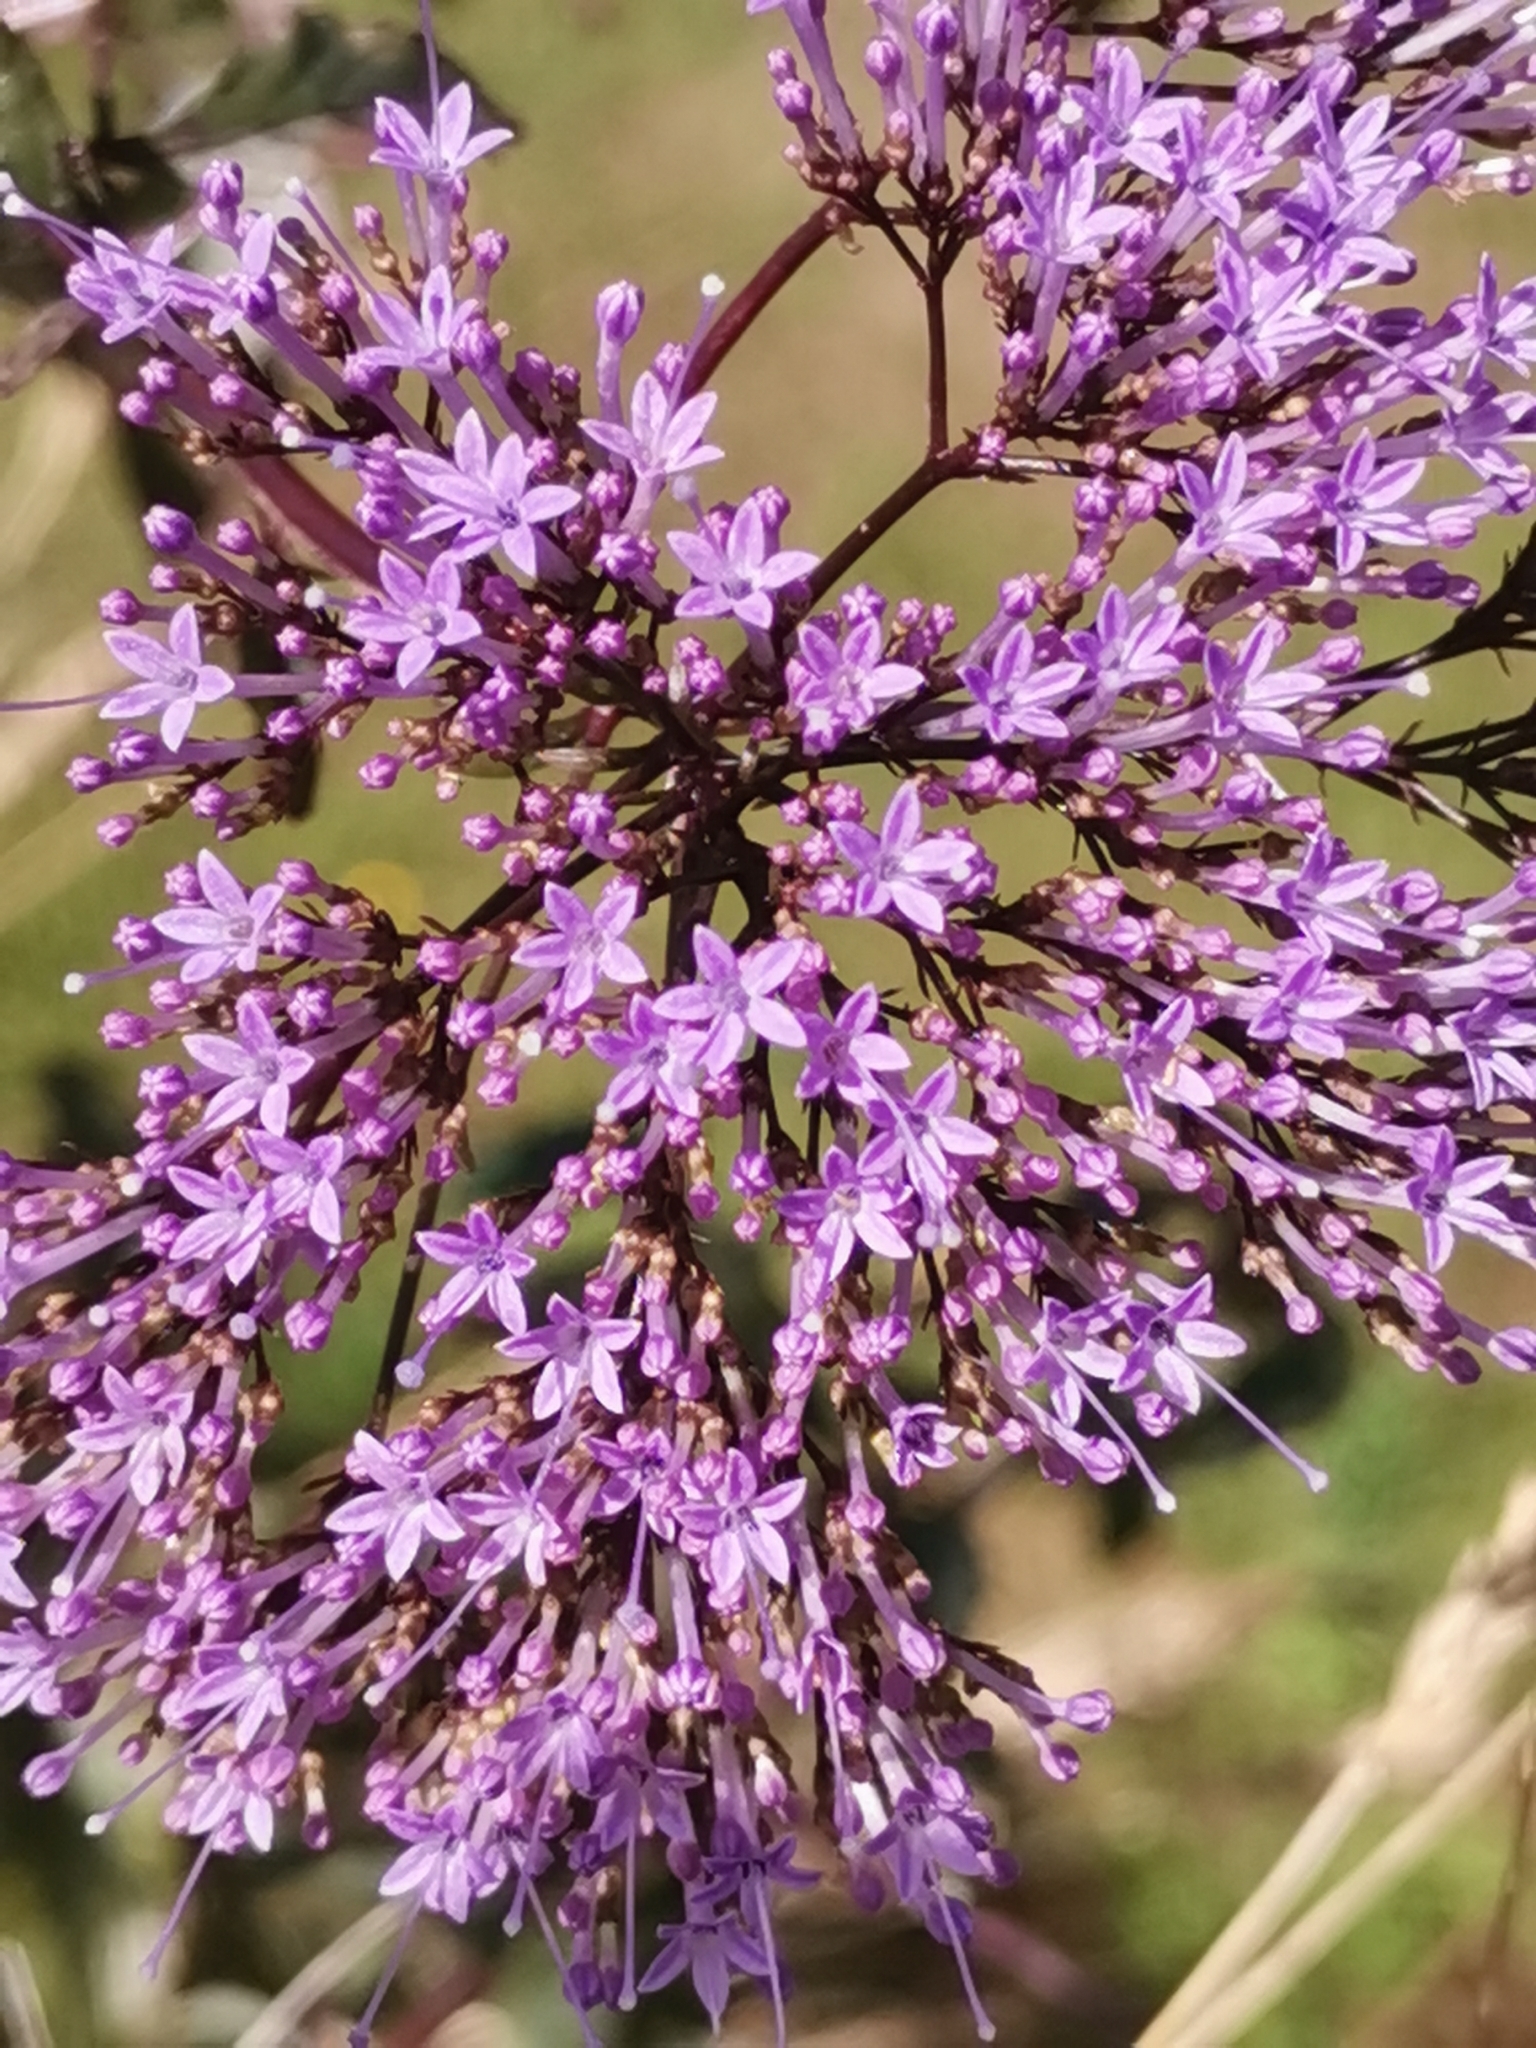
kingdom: Plantae
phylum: Tracheophyta
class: Magnoliopsida
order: Asterales
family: Campanulaceae
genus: Trachelium
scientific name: Trachelium caeruleum
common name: Throatwort
